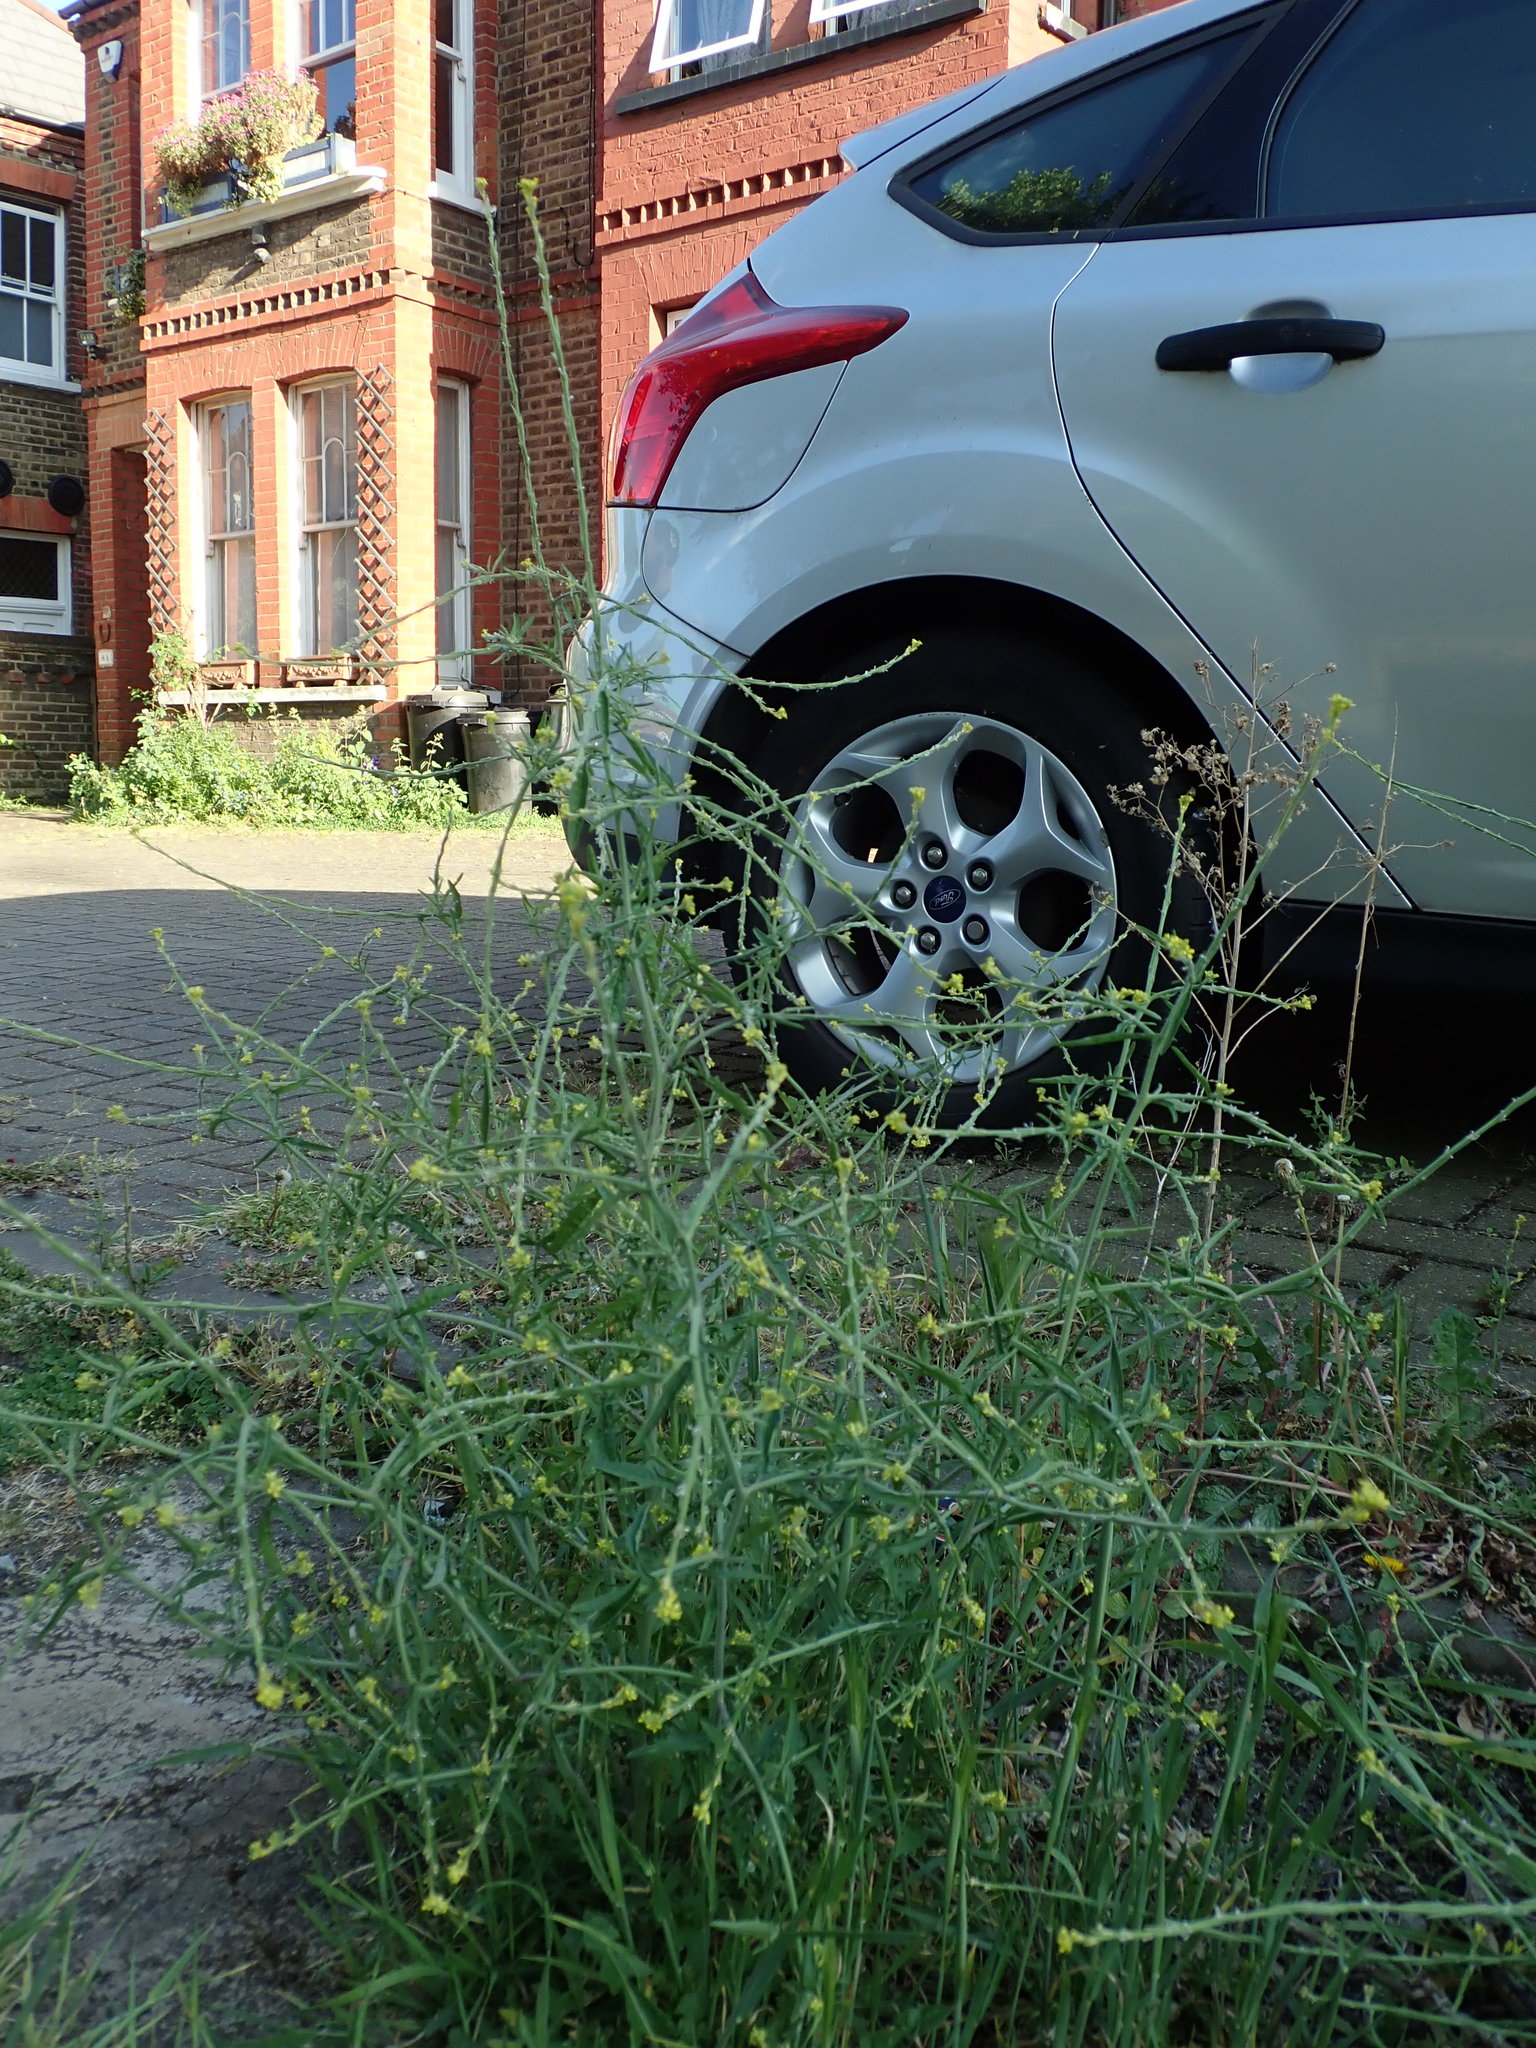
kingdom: Plantae
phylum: Tracheophyta
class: Magnoliopsida
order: Brassicales
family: Brassicaceae
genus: Sisymbrium
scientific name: Sisymbrium officinale
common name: Hedge mustard
